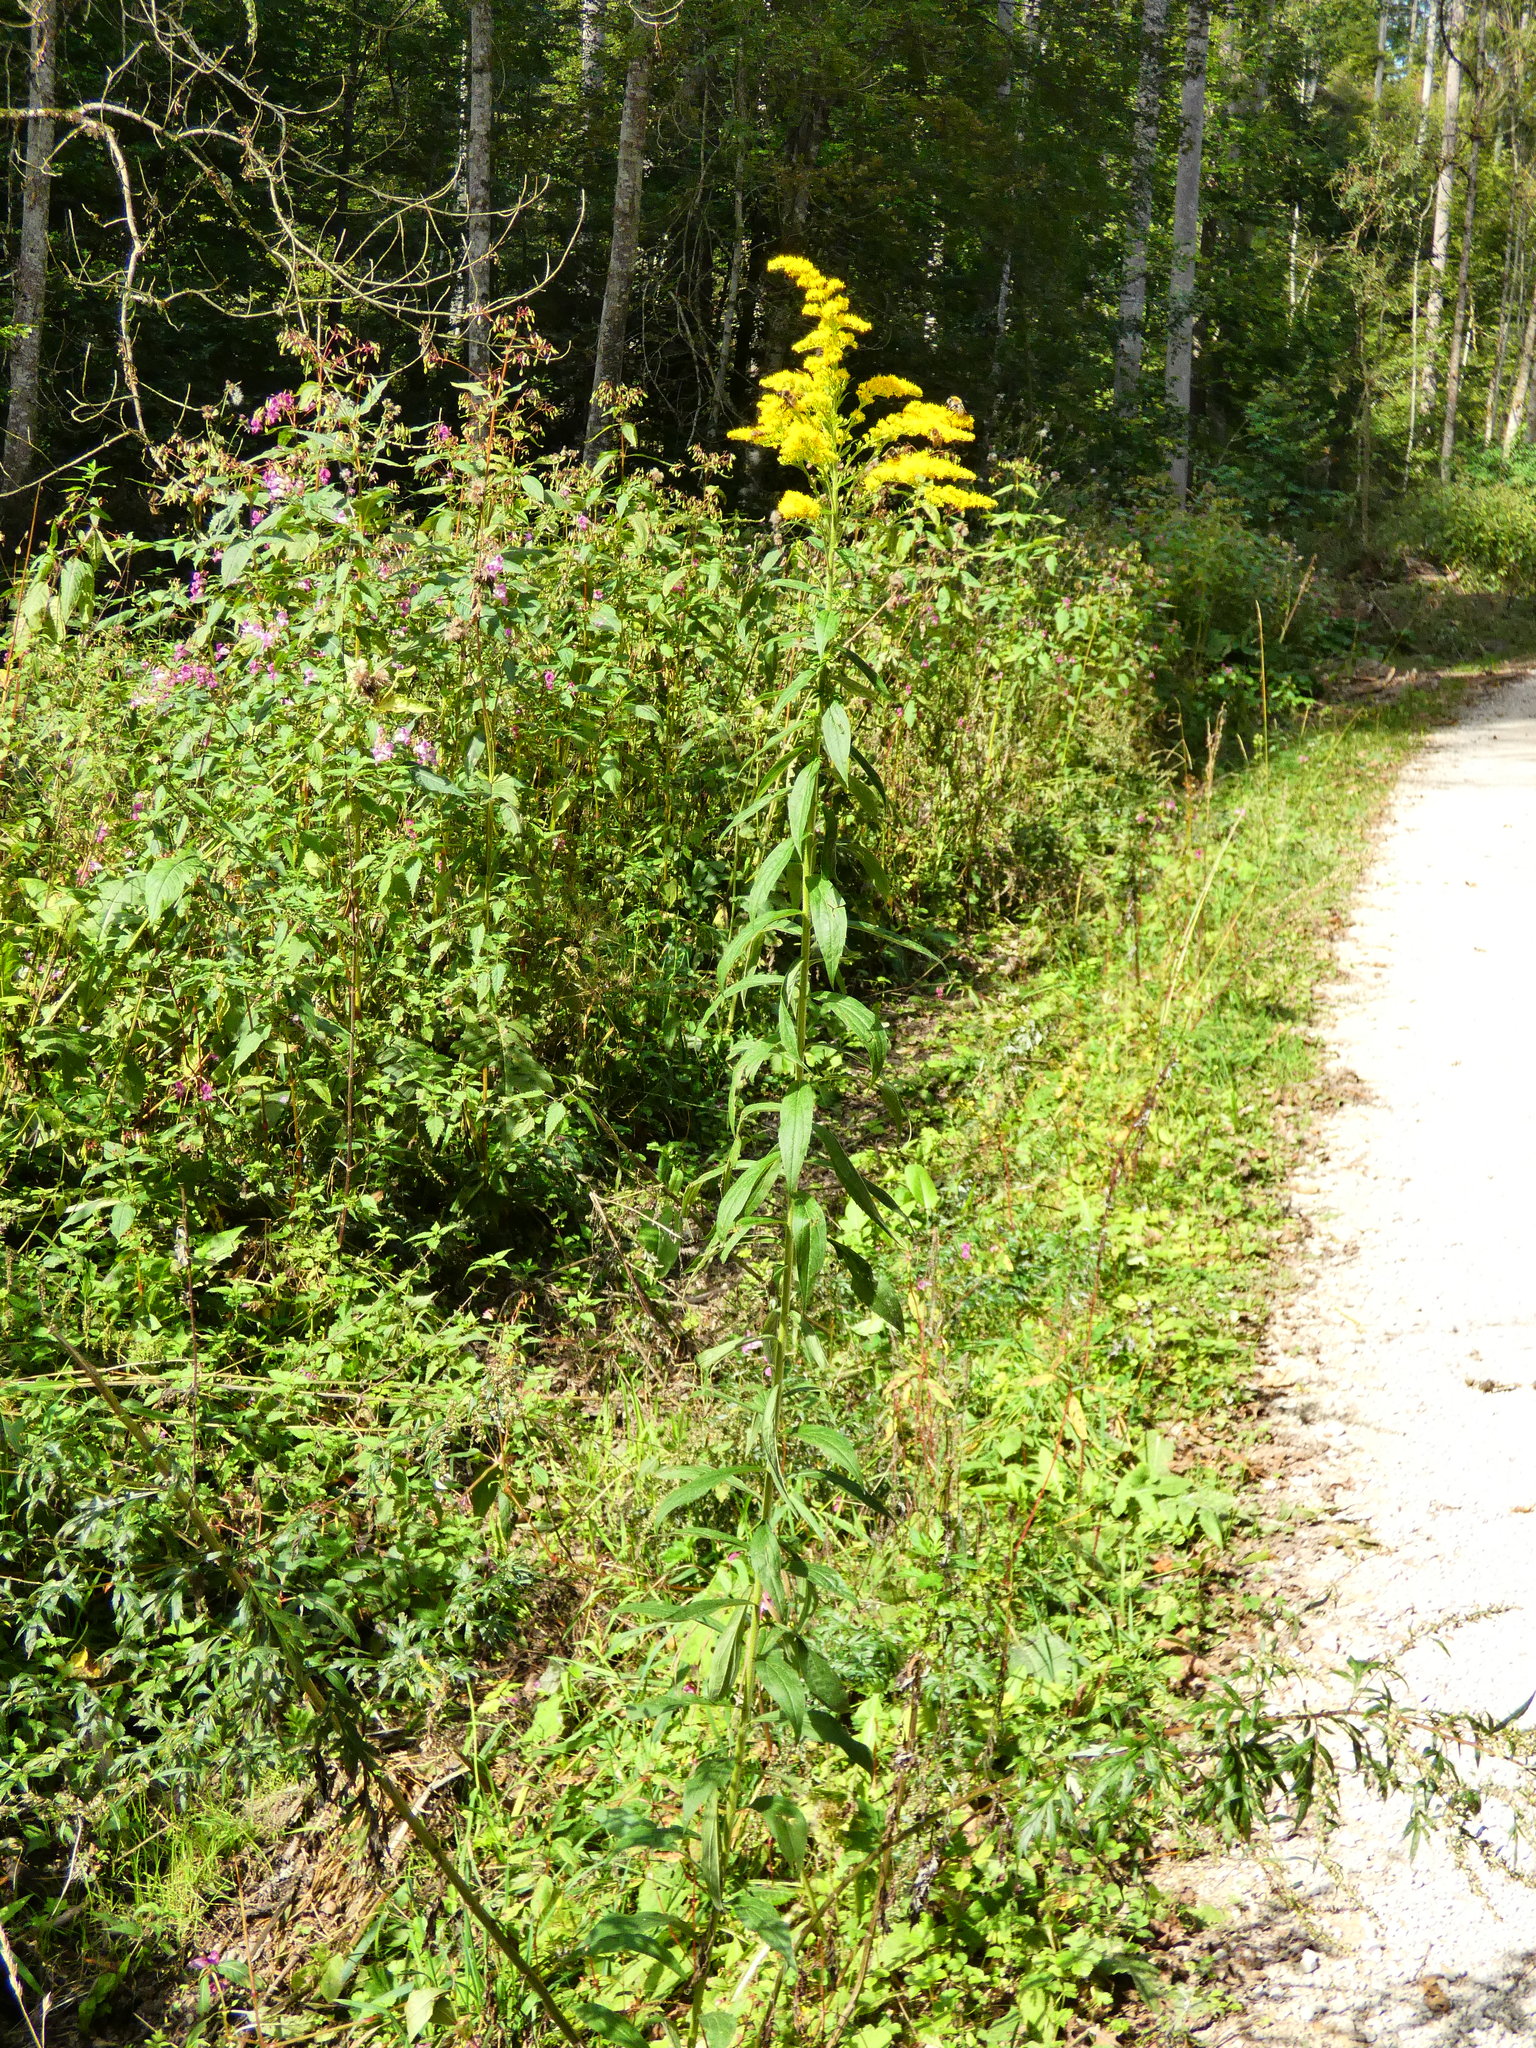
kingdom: Plantae
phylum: Tracheophyta
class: Magnoliopsida
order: Asterales
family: Asteraceae
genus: Solidago
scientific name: Solidago canadensis
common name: Canada goldenrod
